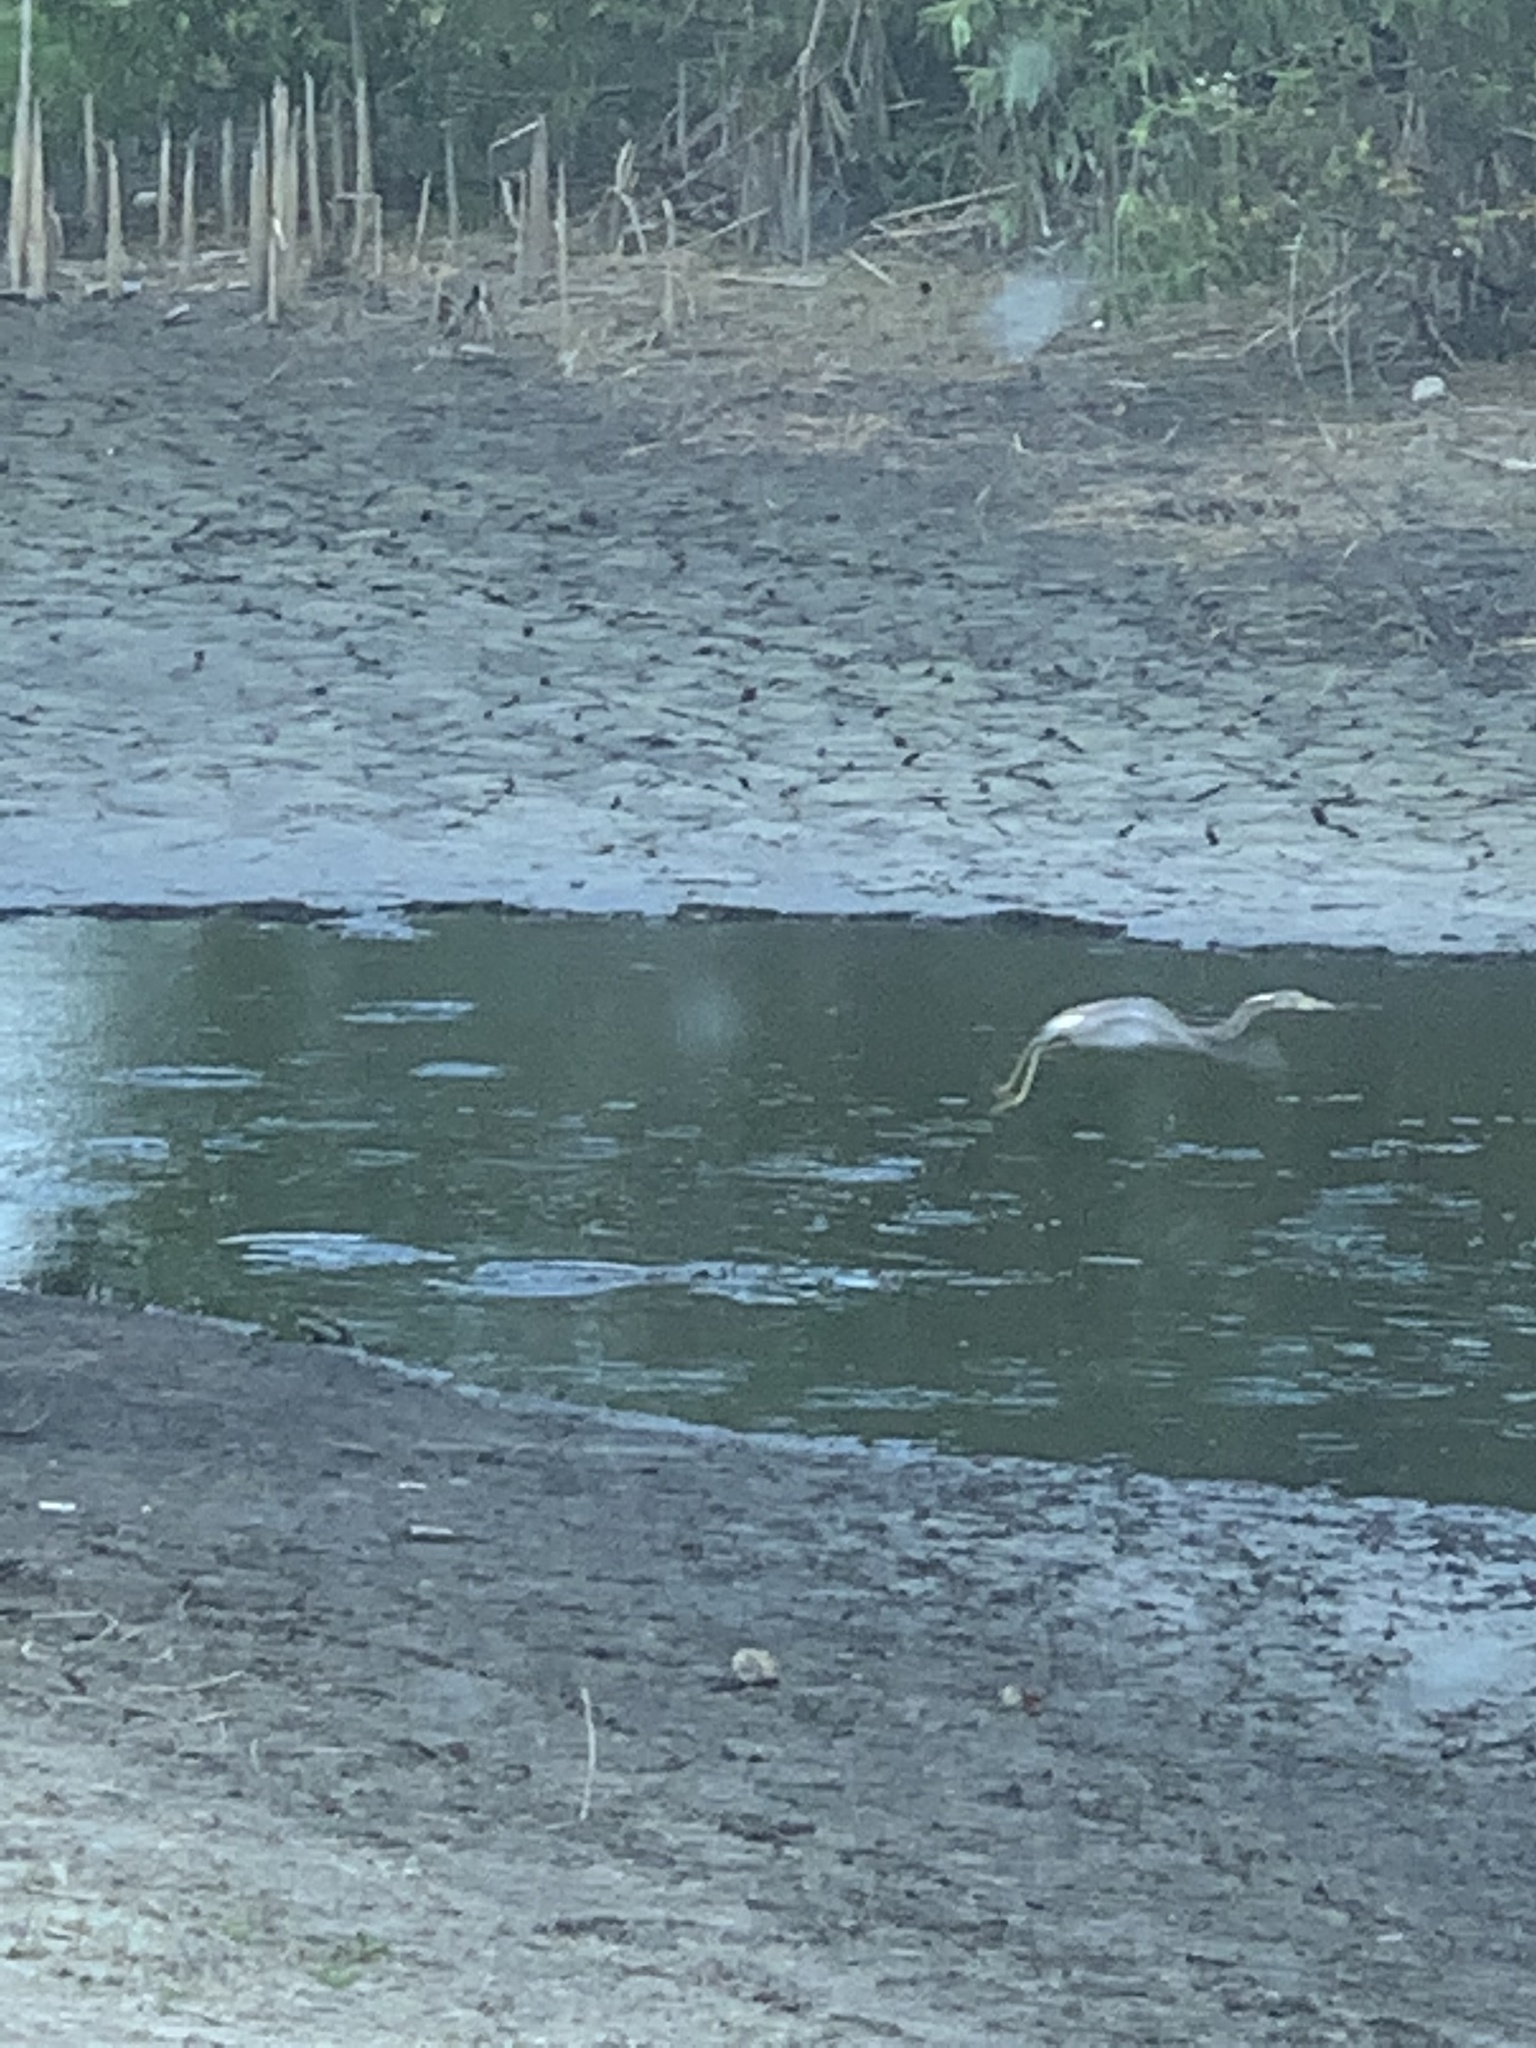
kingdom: Animalia
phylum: Chordata
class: Aves
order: Pelecaniformes
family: Ardeidae
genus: Egretta
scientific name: Egretta tricolor
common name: Tricolored heron
